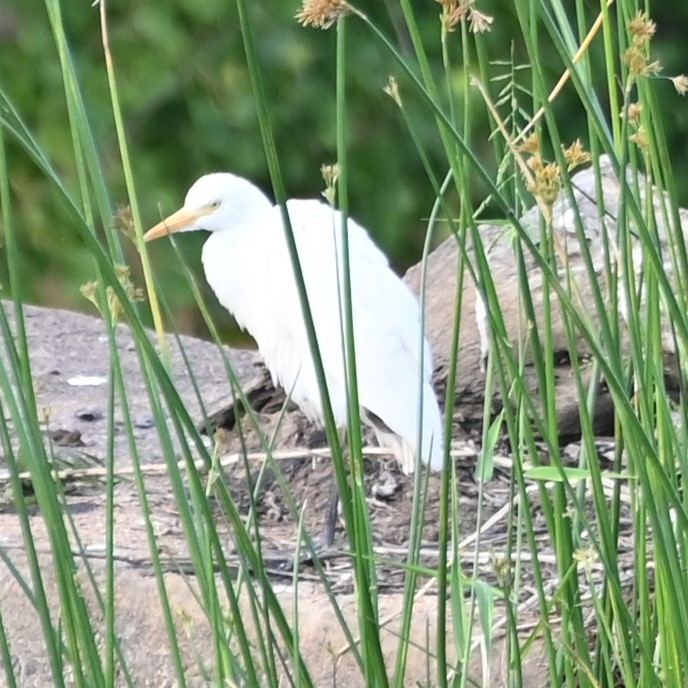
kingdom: Animalia
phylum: Chordata
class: Aves
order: Pelecaniformes
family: Ardeidae
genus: Bubulcus
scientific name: Bubulcus ibis
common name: Cattle egret
